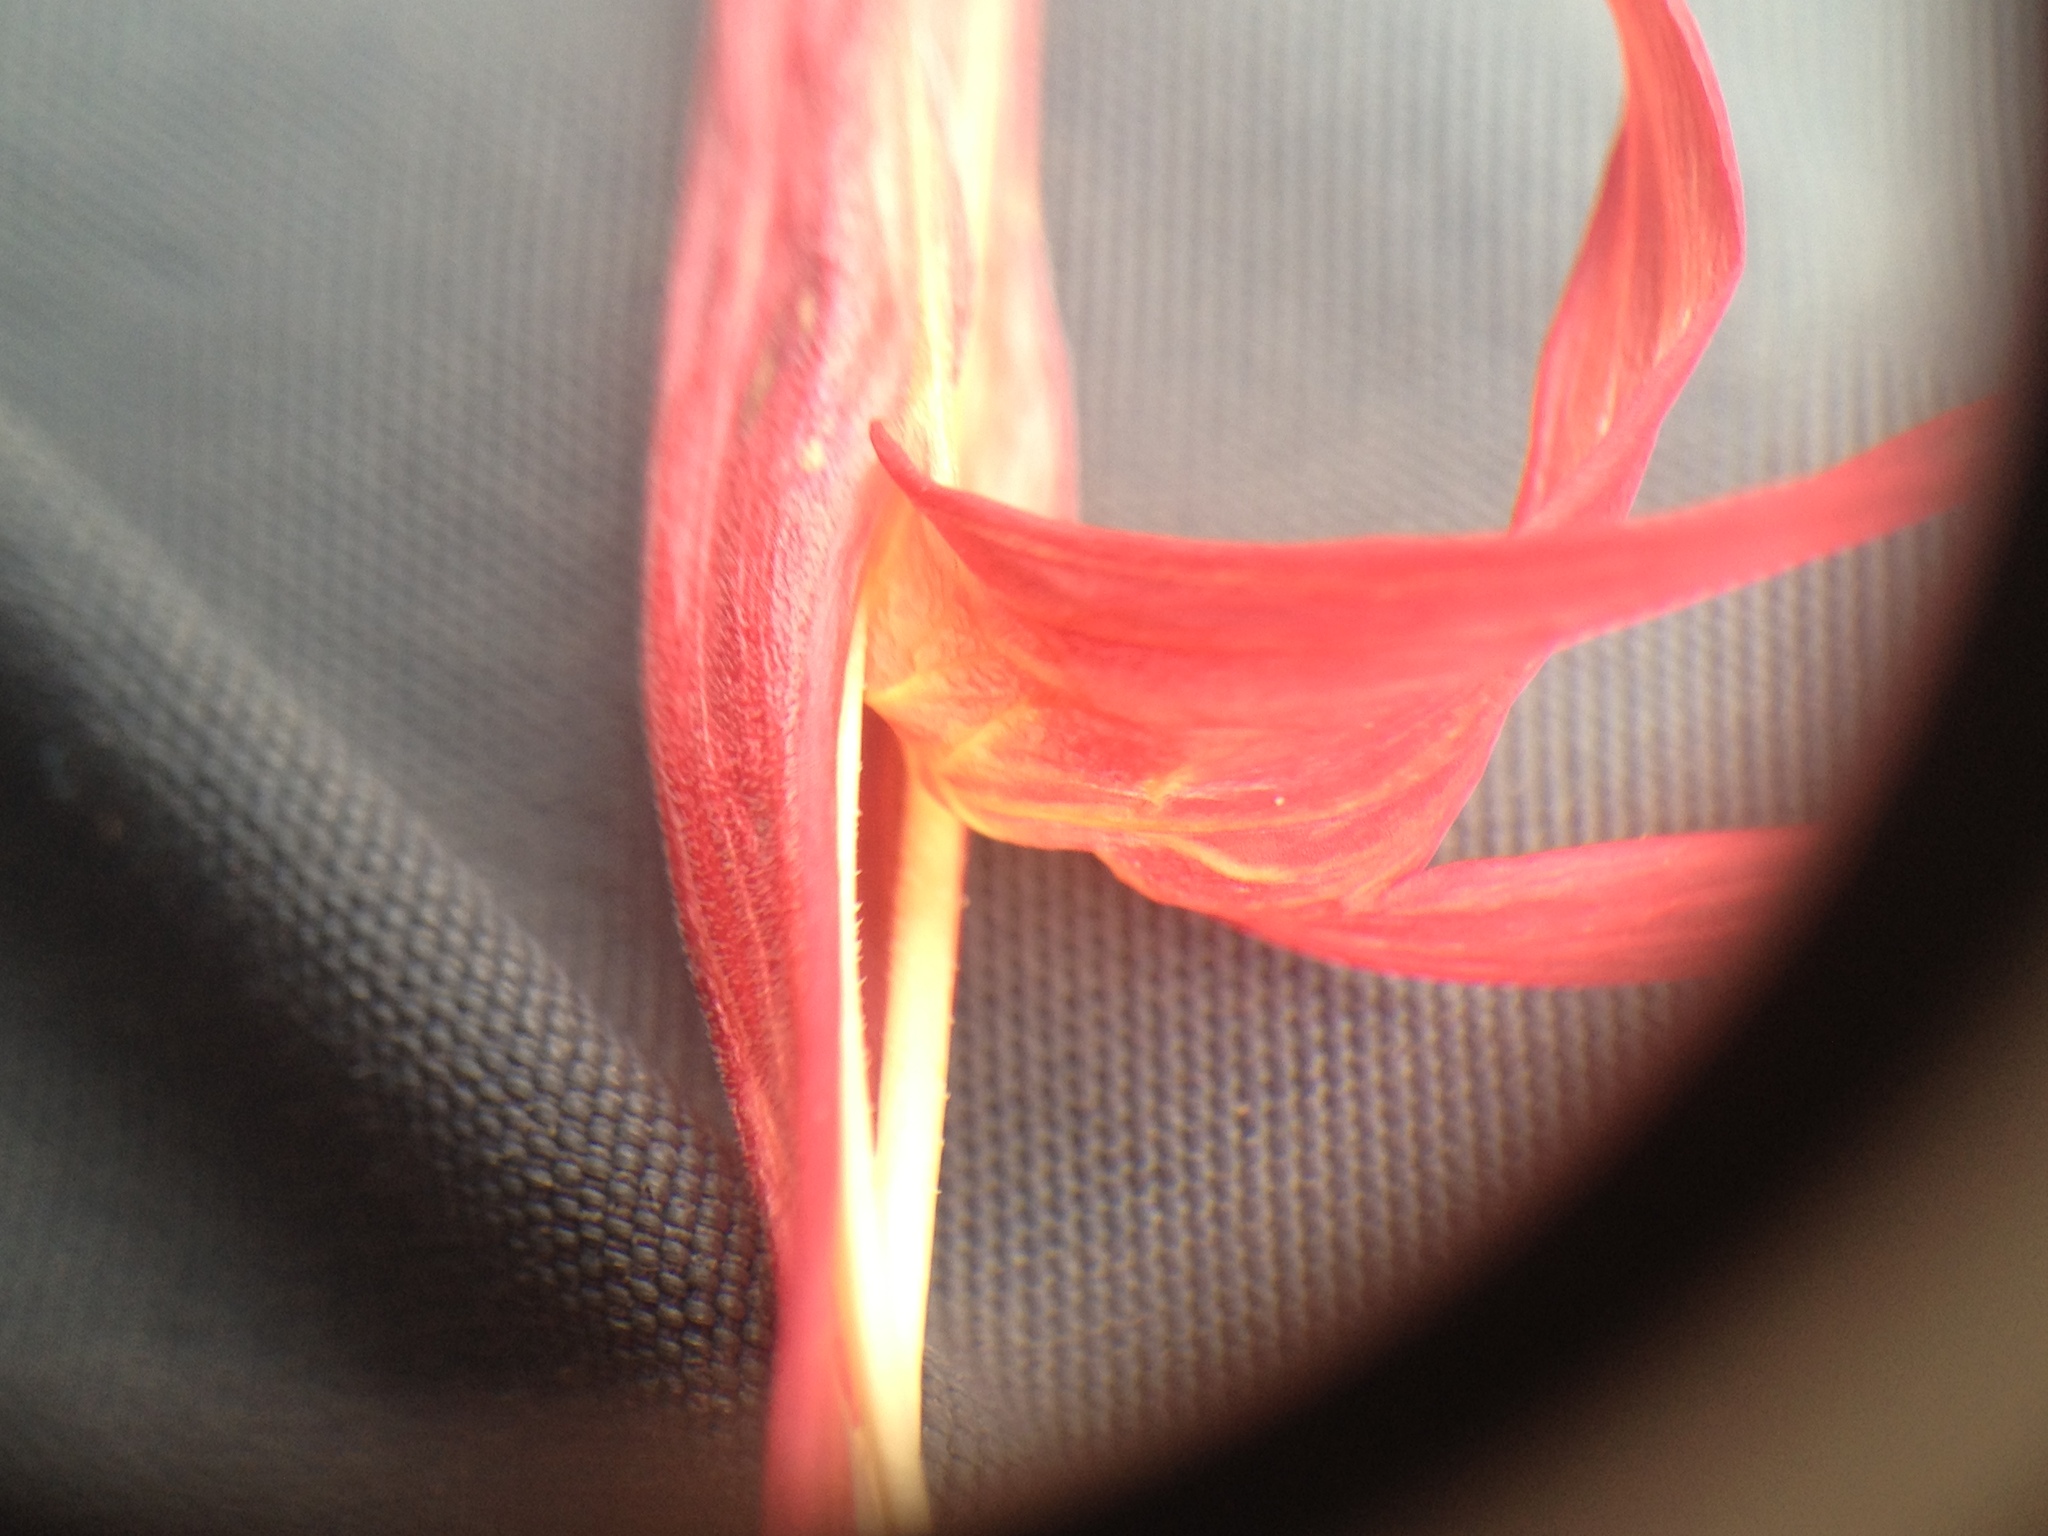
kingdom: Plantae
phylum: Tracheophyta
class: Magnoliopsida
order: Lamiales
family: Acanthaceae
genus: Justicia
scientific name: Justicia xylosteoides
